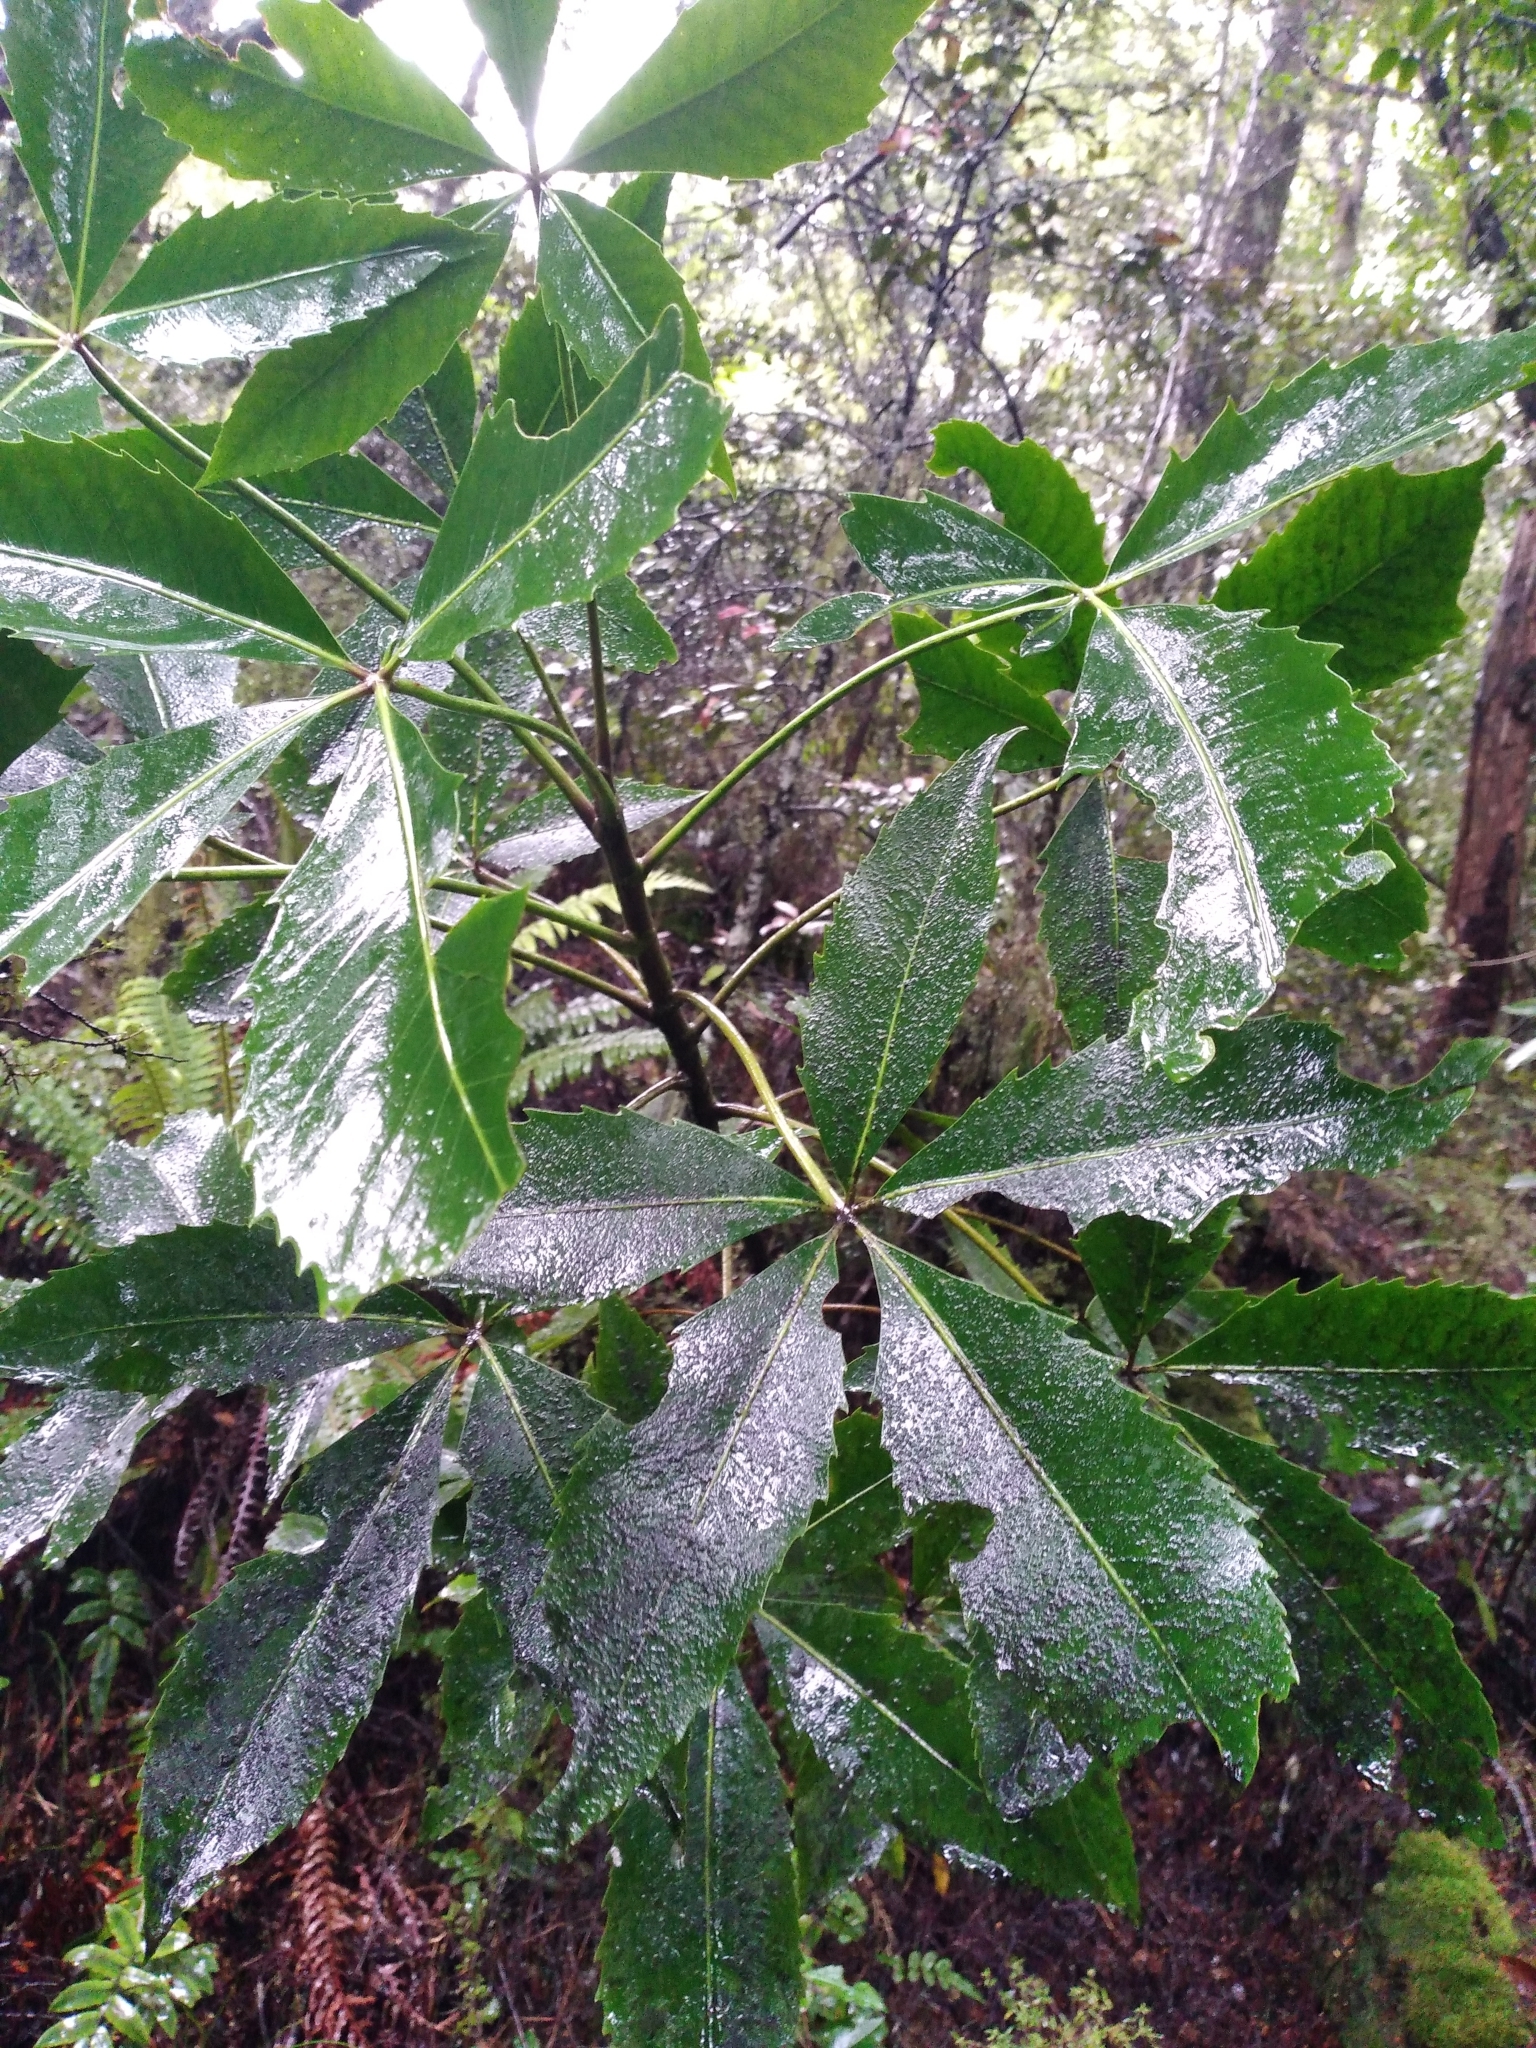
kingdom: Plantae
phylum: Tracheophyta
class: Magnoliopsida
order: Apiales
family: Araliaceae
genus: Neopanax
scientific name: Neopanax colensoi
